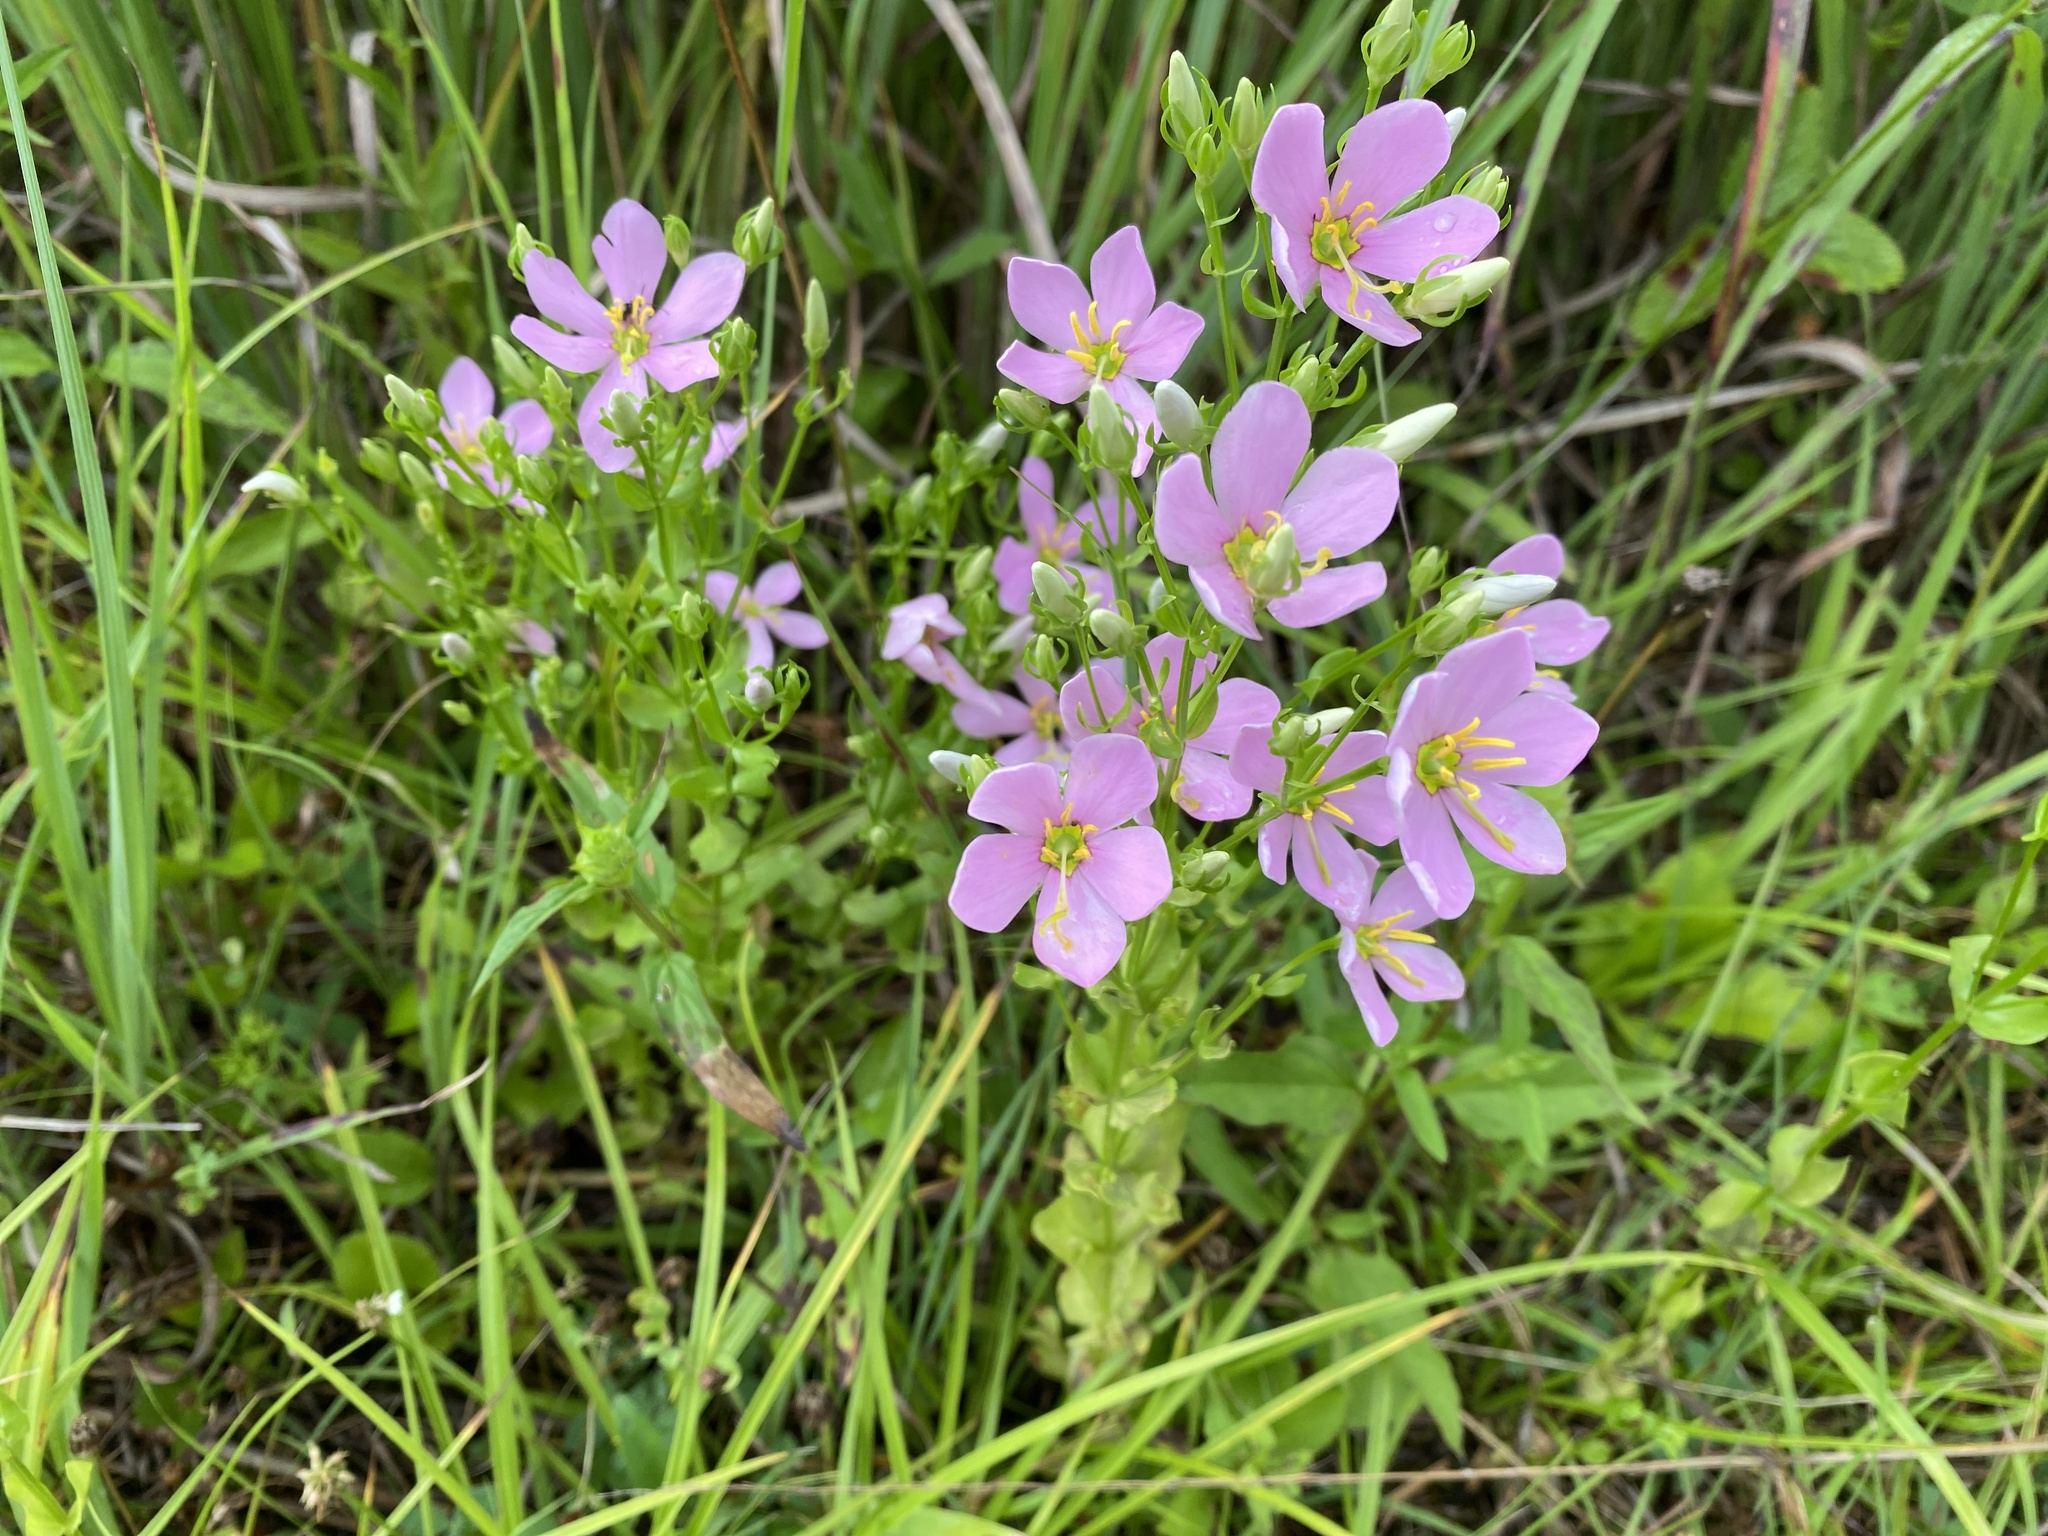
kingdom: Plantae
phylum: Tracheophyta
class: Magnoliopsida
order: Gentianales
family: Gentianaceae
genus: Sabatia
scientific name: Sabatia angularis
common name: Rose-pink
